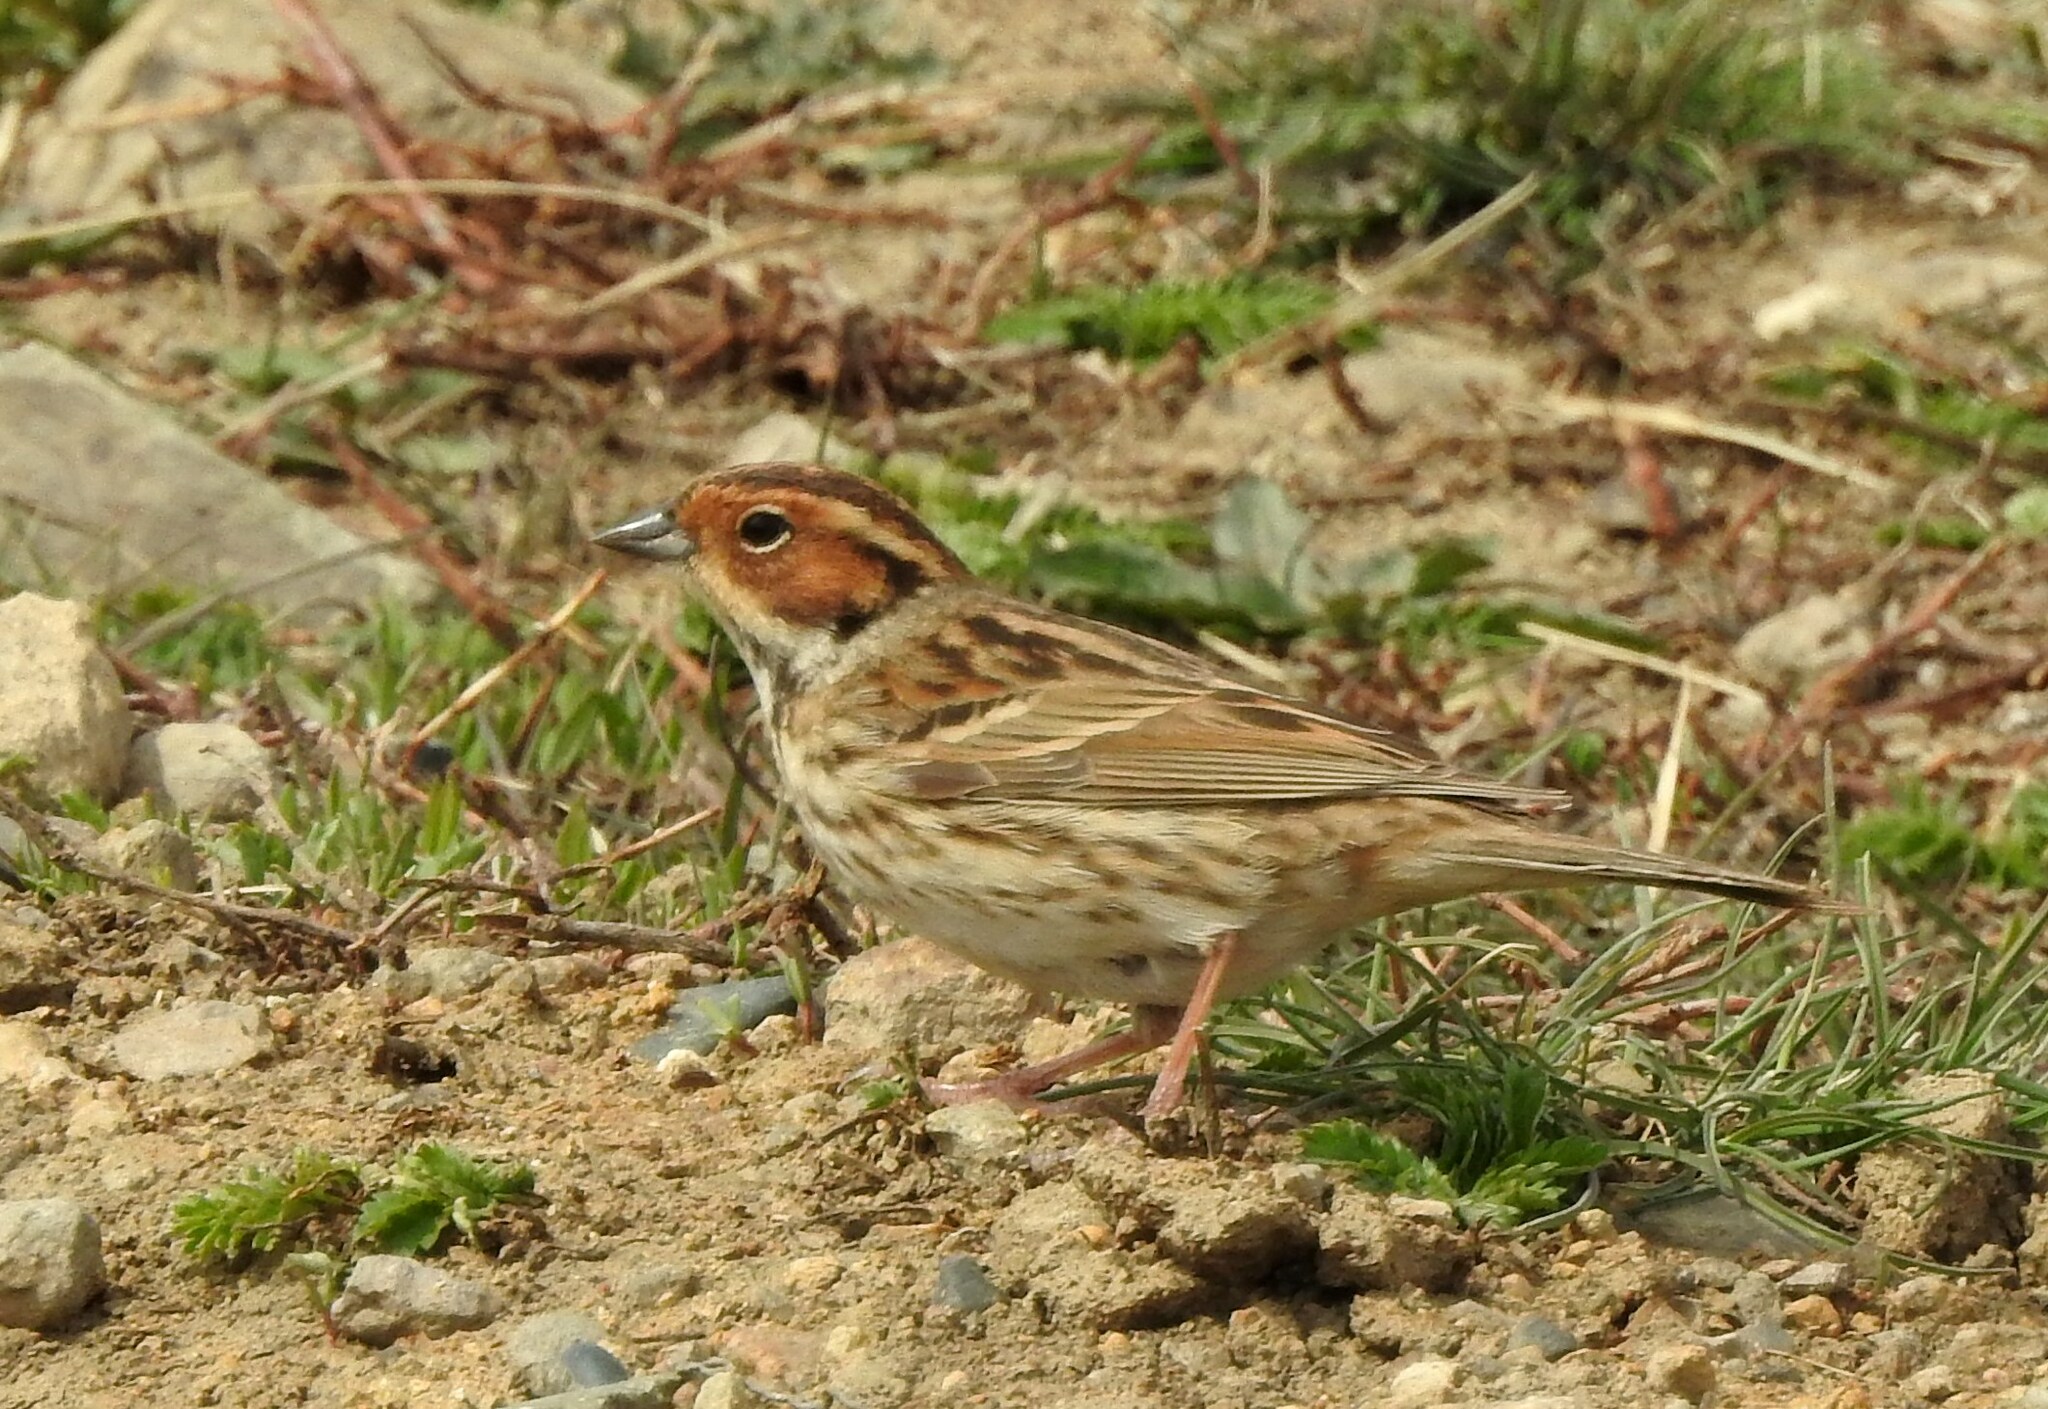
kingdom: Animalia
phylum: Chordata
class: Aves
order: Passeriformes
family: Emberizidae
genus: Emberiza
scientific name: Emberiza pusilla
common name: Little bunting
